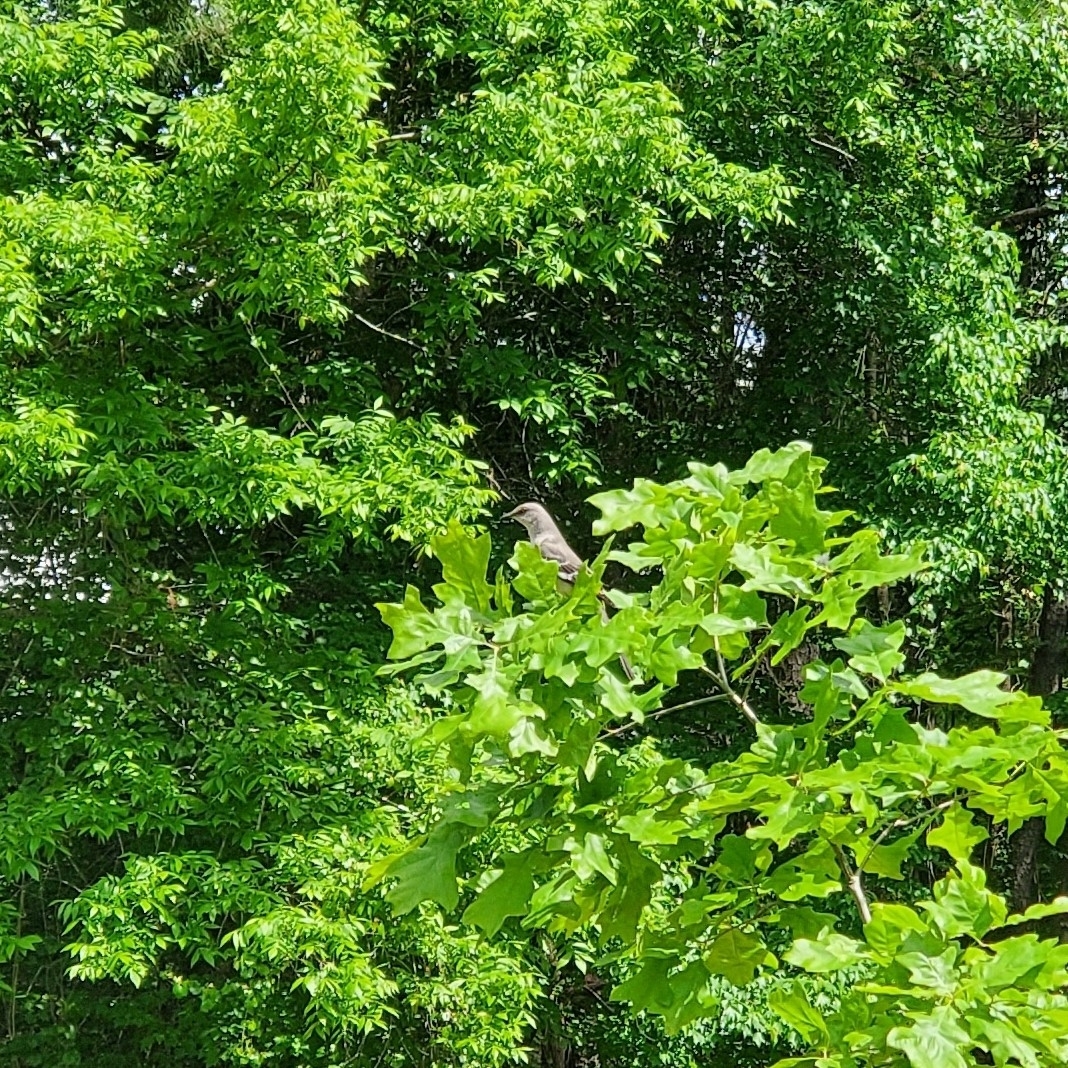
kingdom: Animalia
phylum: Chordata
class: Aves
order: Passeriformes
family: Mimidae
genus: Mimus
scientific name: Mimus polyglottos
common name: Northern mockingbird
